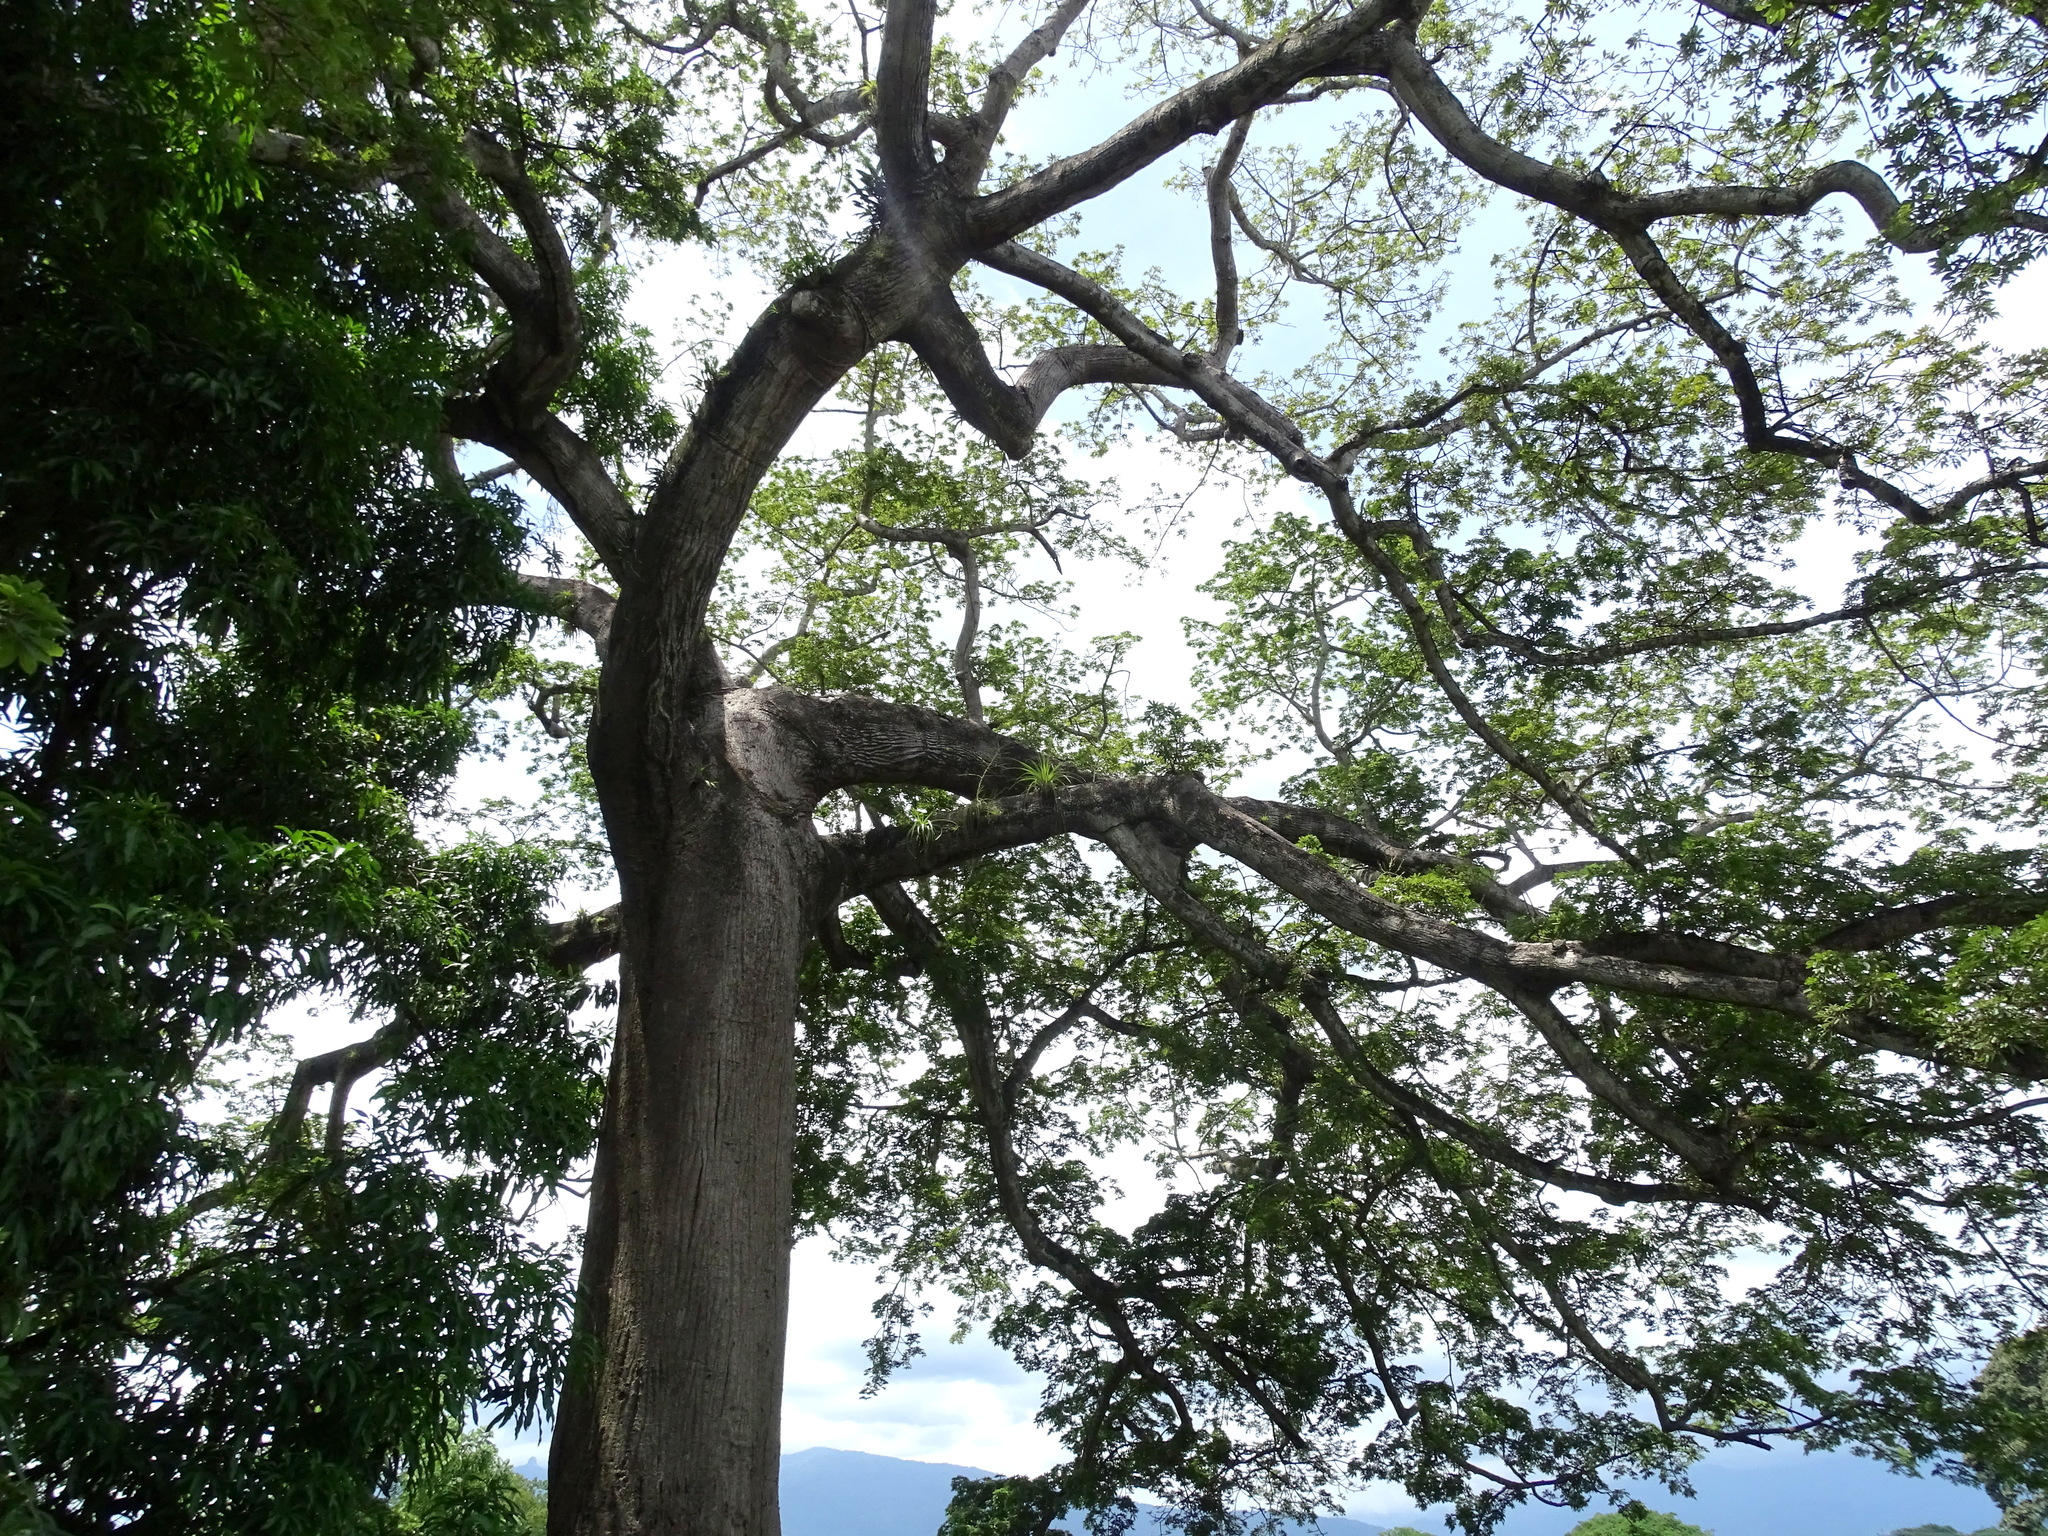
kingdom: Plantae
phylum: Tracheophyta
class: Magnoliopsida
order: Malvales
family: Malvaceae
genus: Ceiba
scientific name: Ceiba pentandra
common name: Kapok
